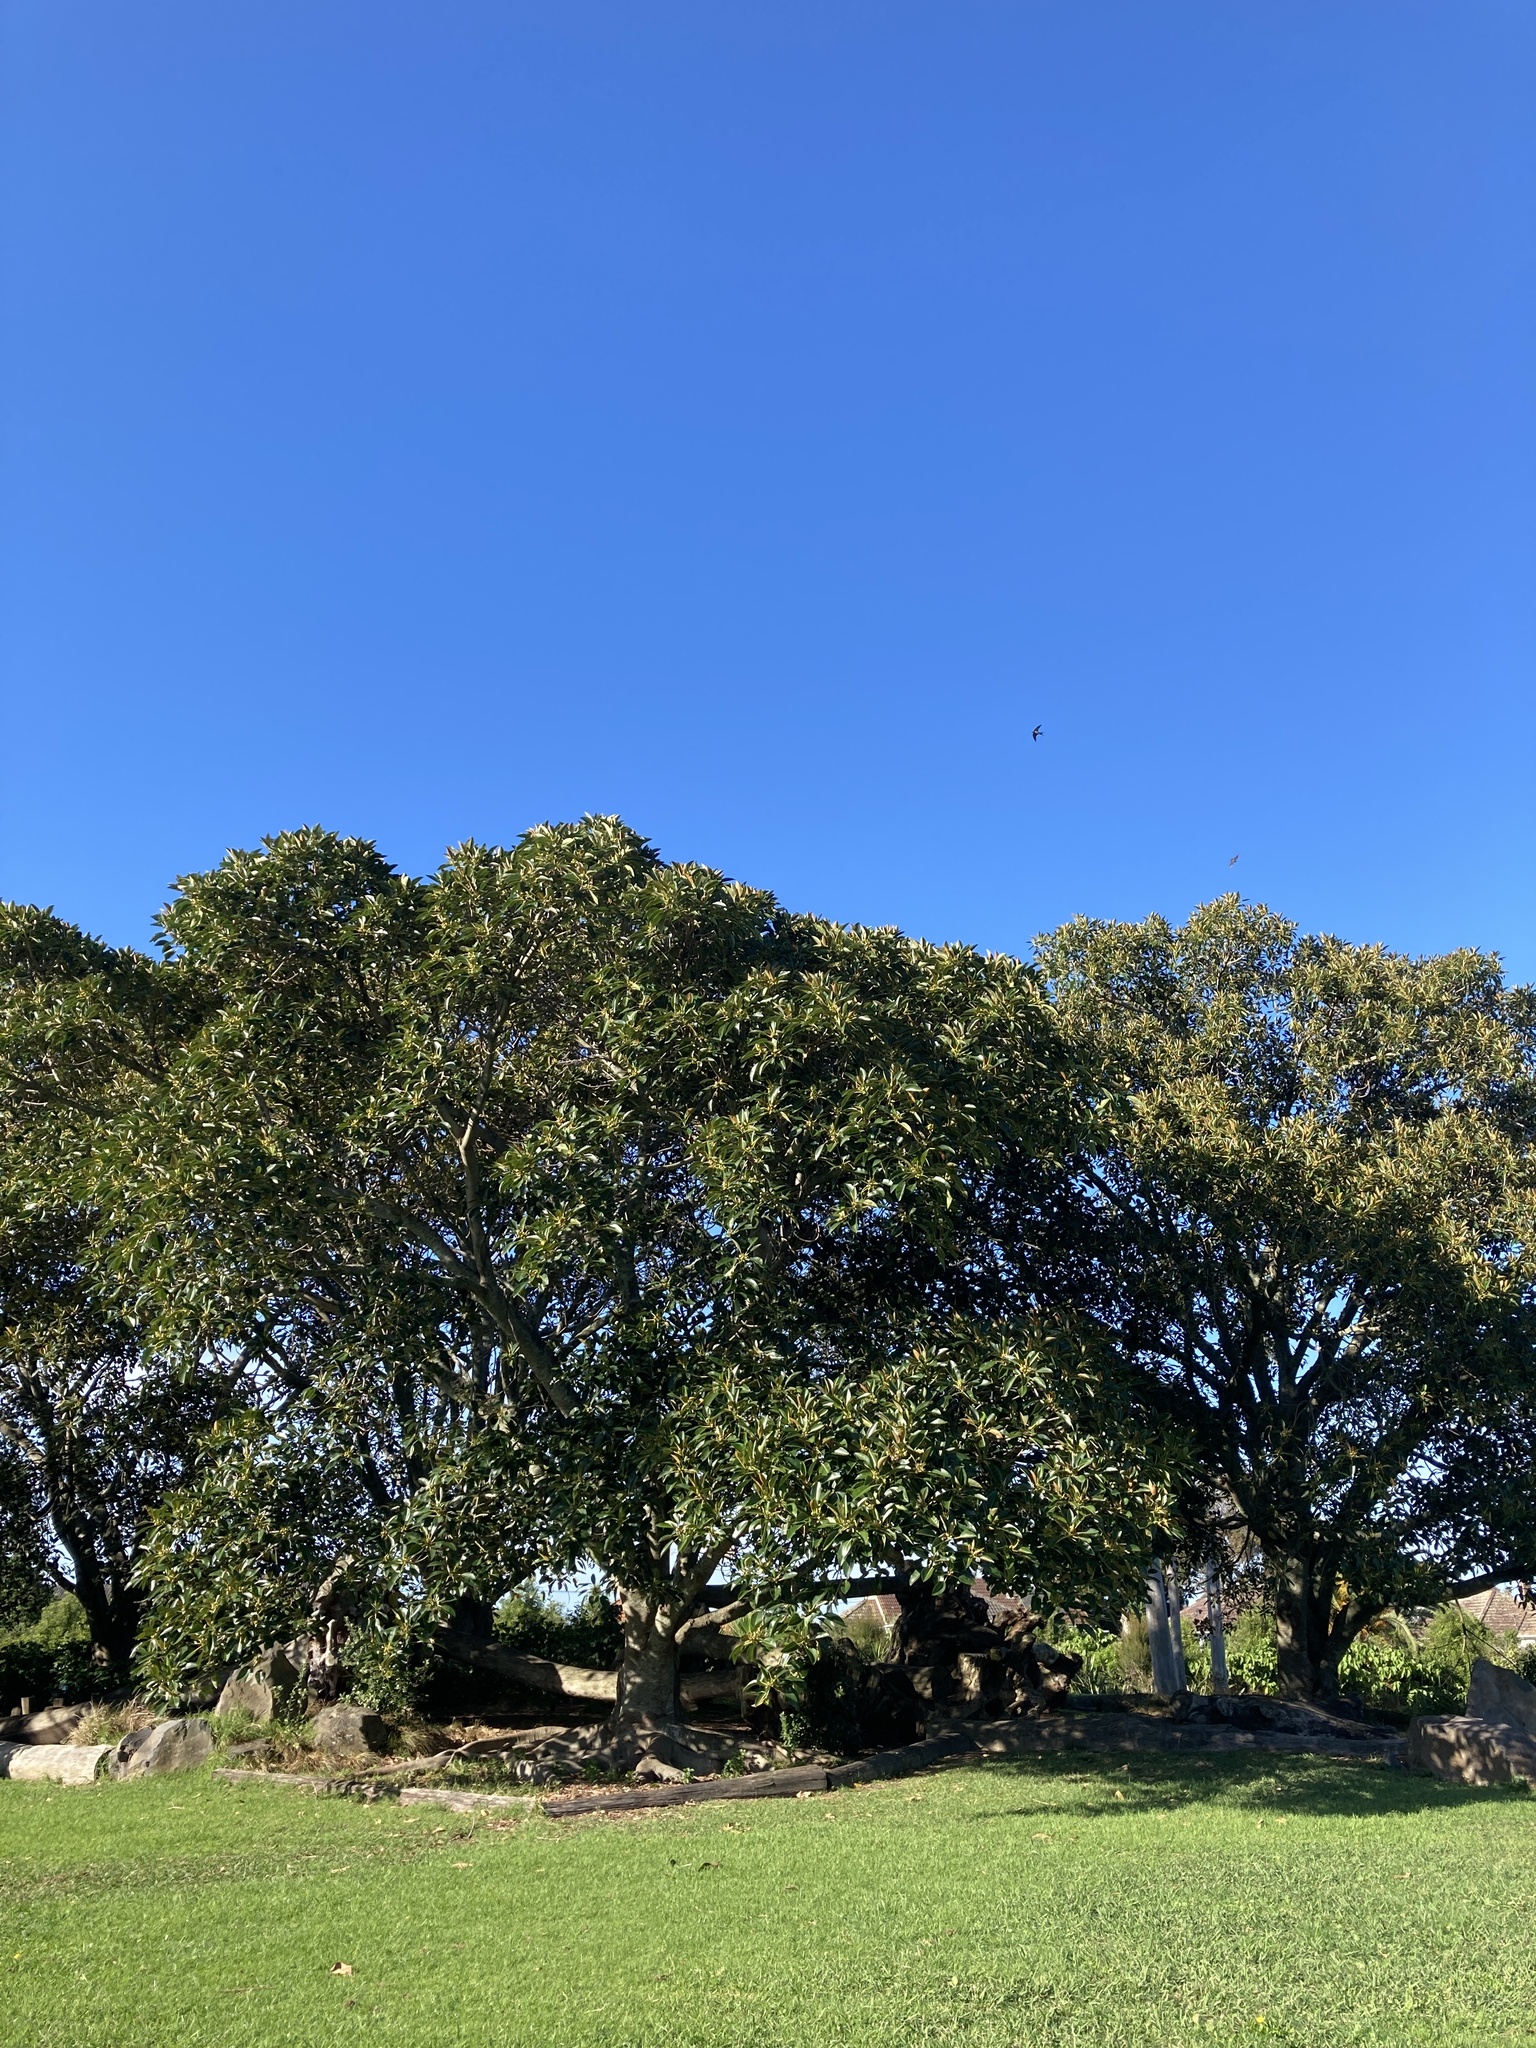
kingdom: Plantae
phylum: Tracheophyta
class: Magnoliopsida
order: Rosales
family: Moraceae
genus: Ficus
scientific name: Ficus macrophylla
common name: Moreton bay fig
